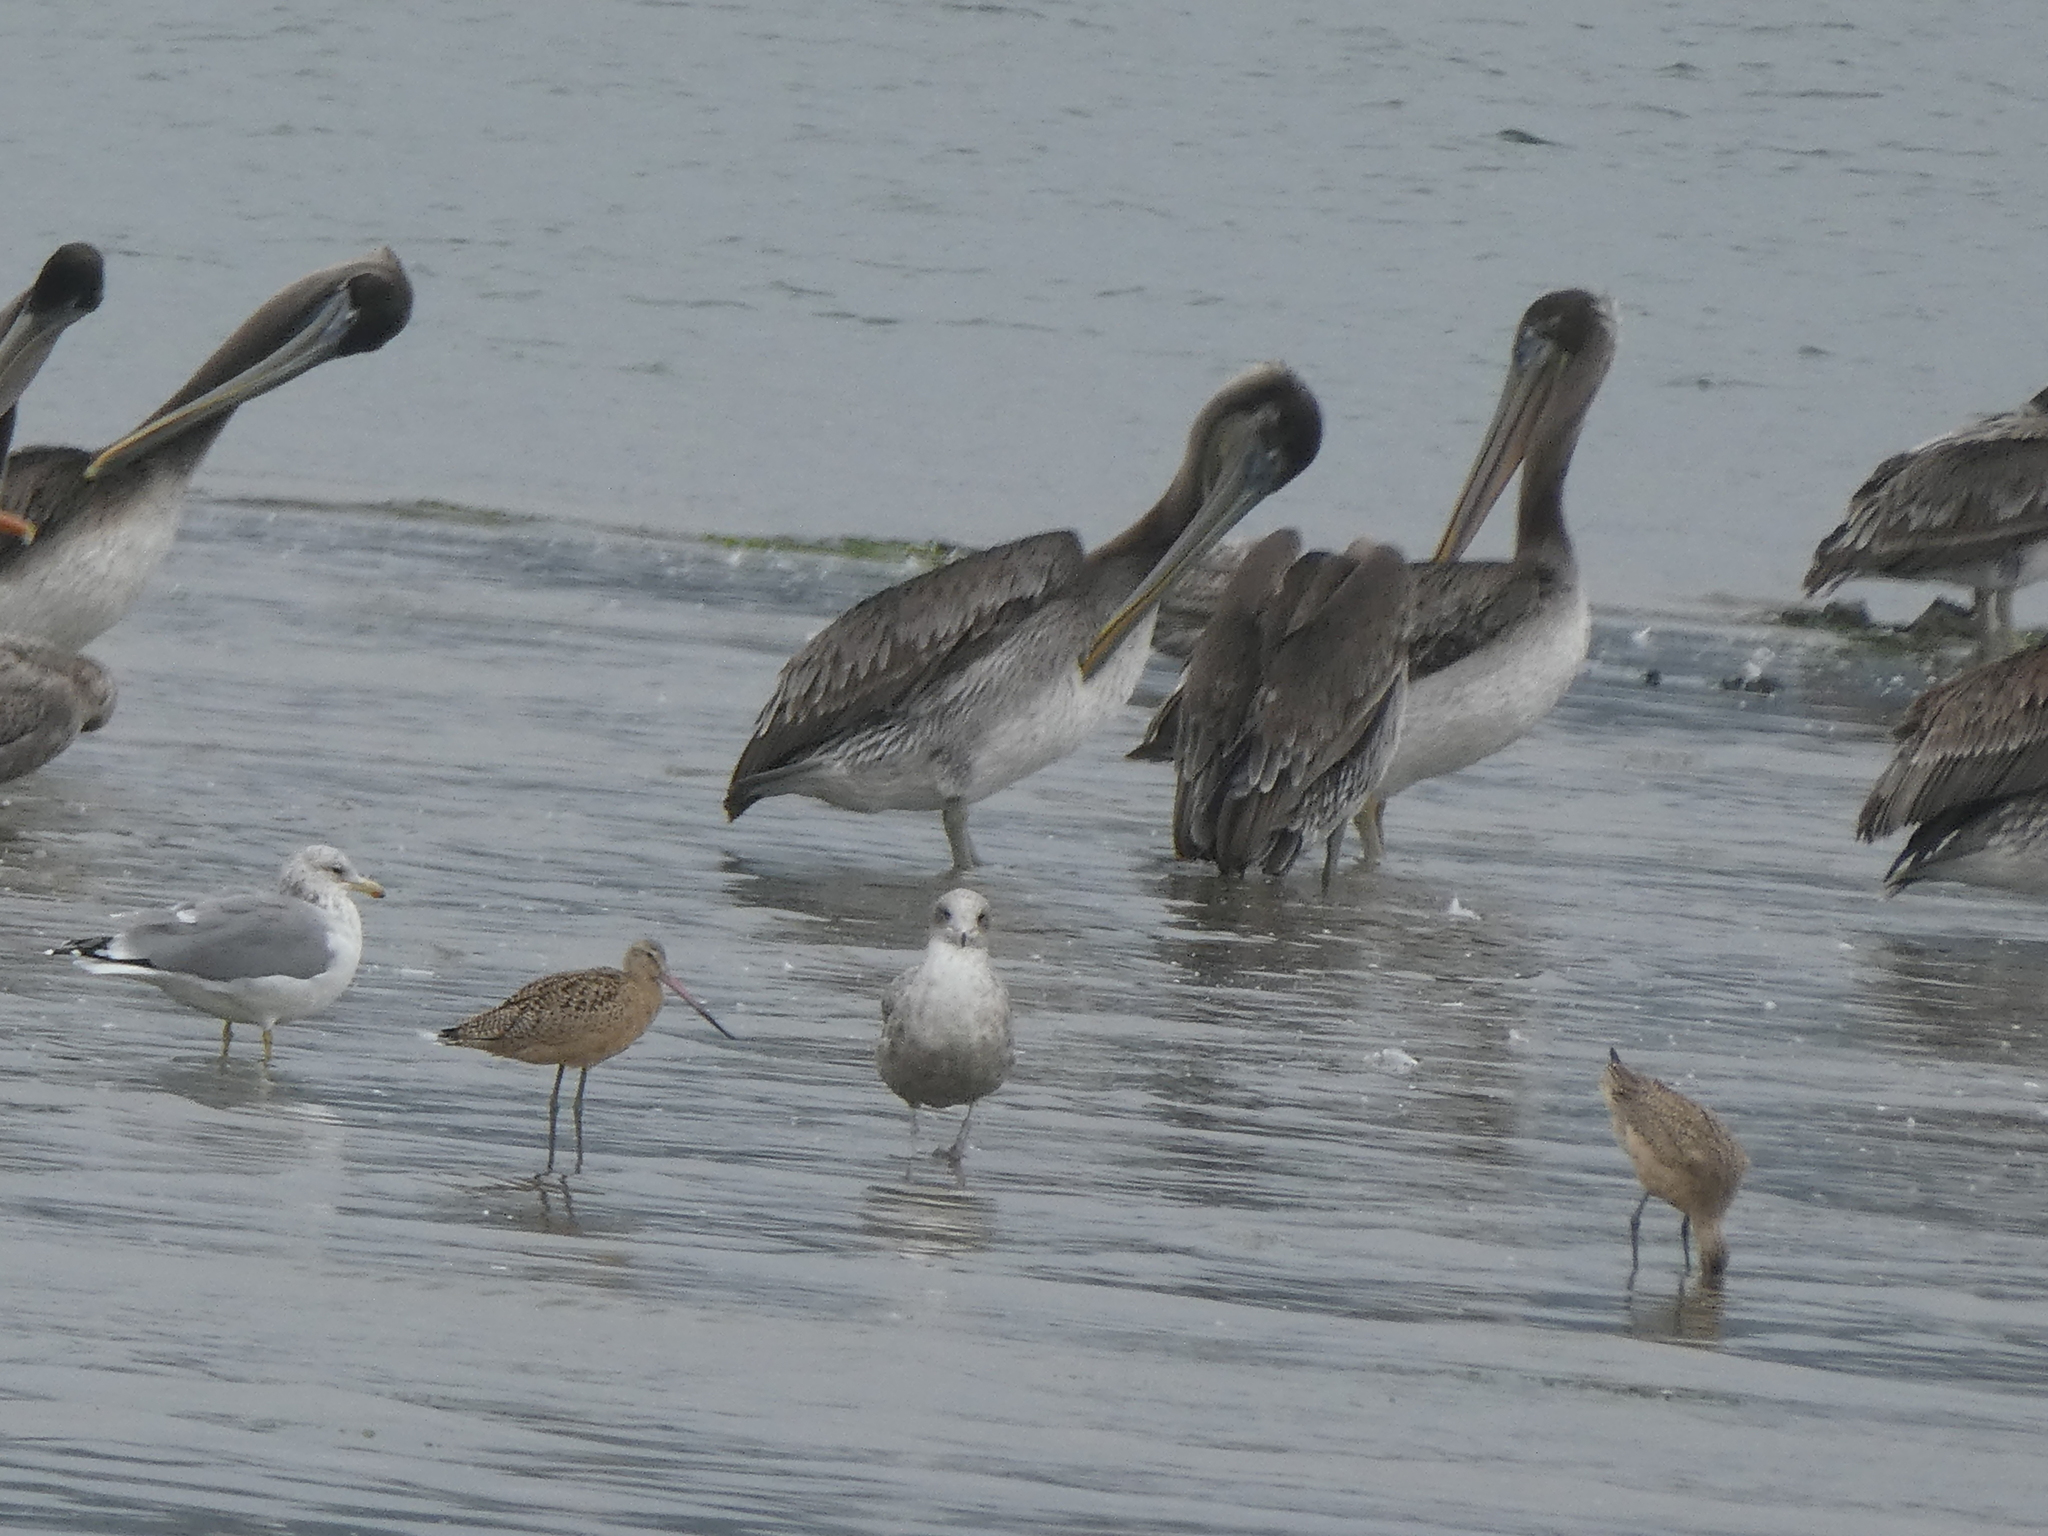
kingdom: Animalia
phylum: Chordata
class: Aves
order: Pelecaniformes
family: Pelecanidae
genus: Pelecanus
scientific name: Pelecanus occidentalis
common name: Brown pelican
